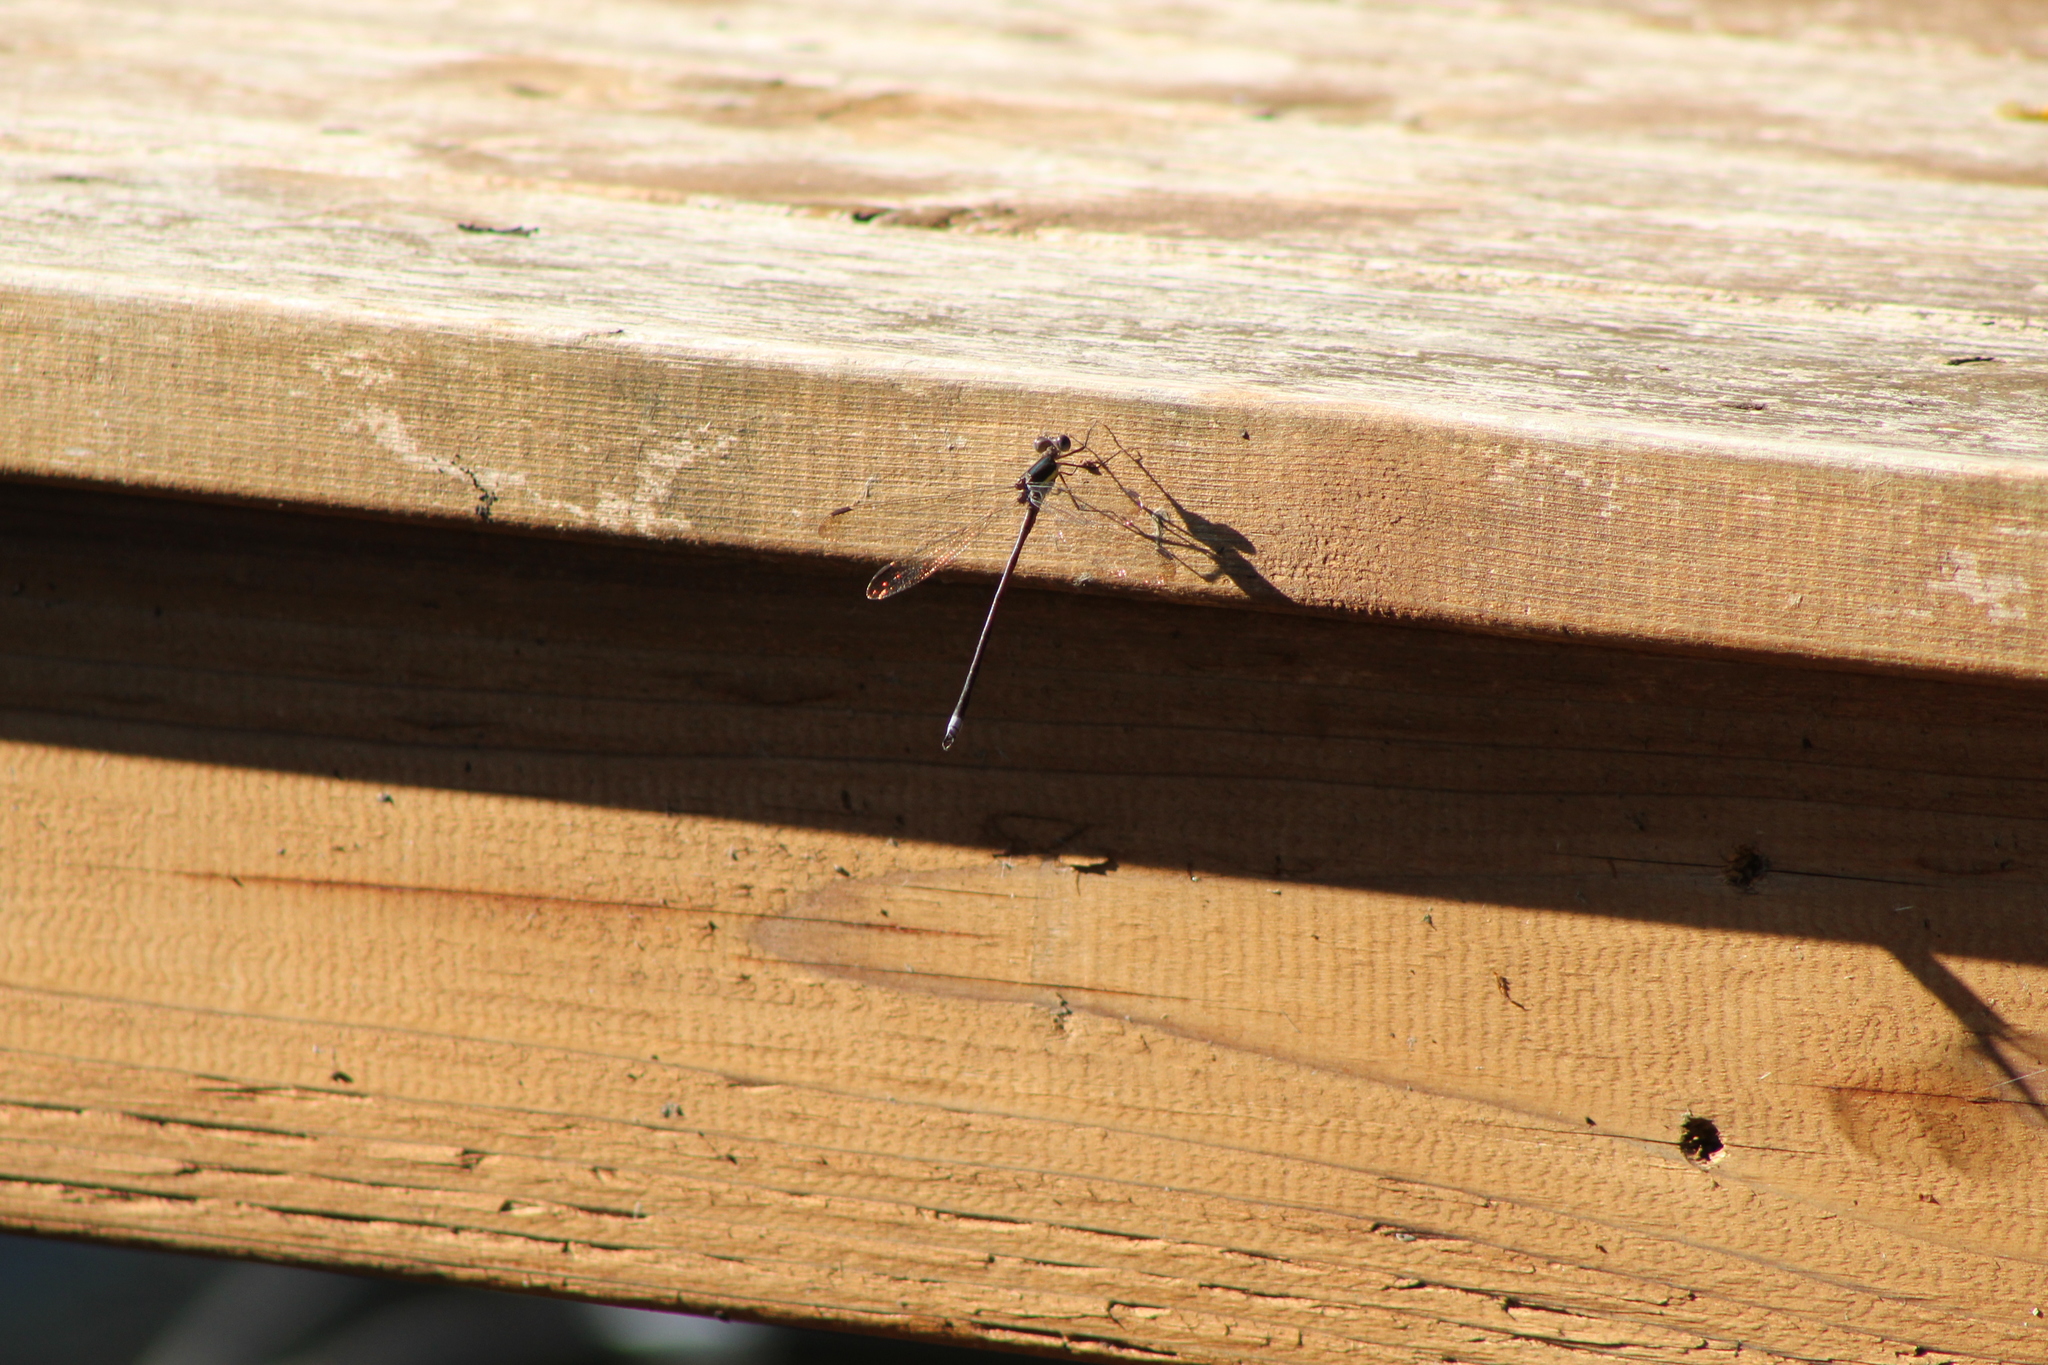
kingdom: Animalia
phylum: Arthropoda
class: Insecta
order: Odonata
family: Lestidae
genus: Archilestes
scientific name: Archilestes grandis
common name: Great spreadwing
